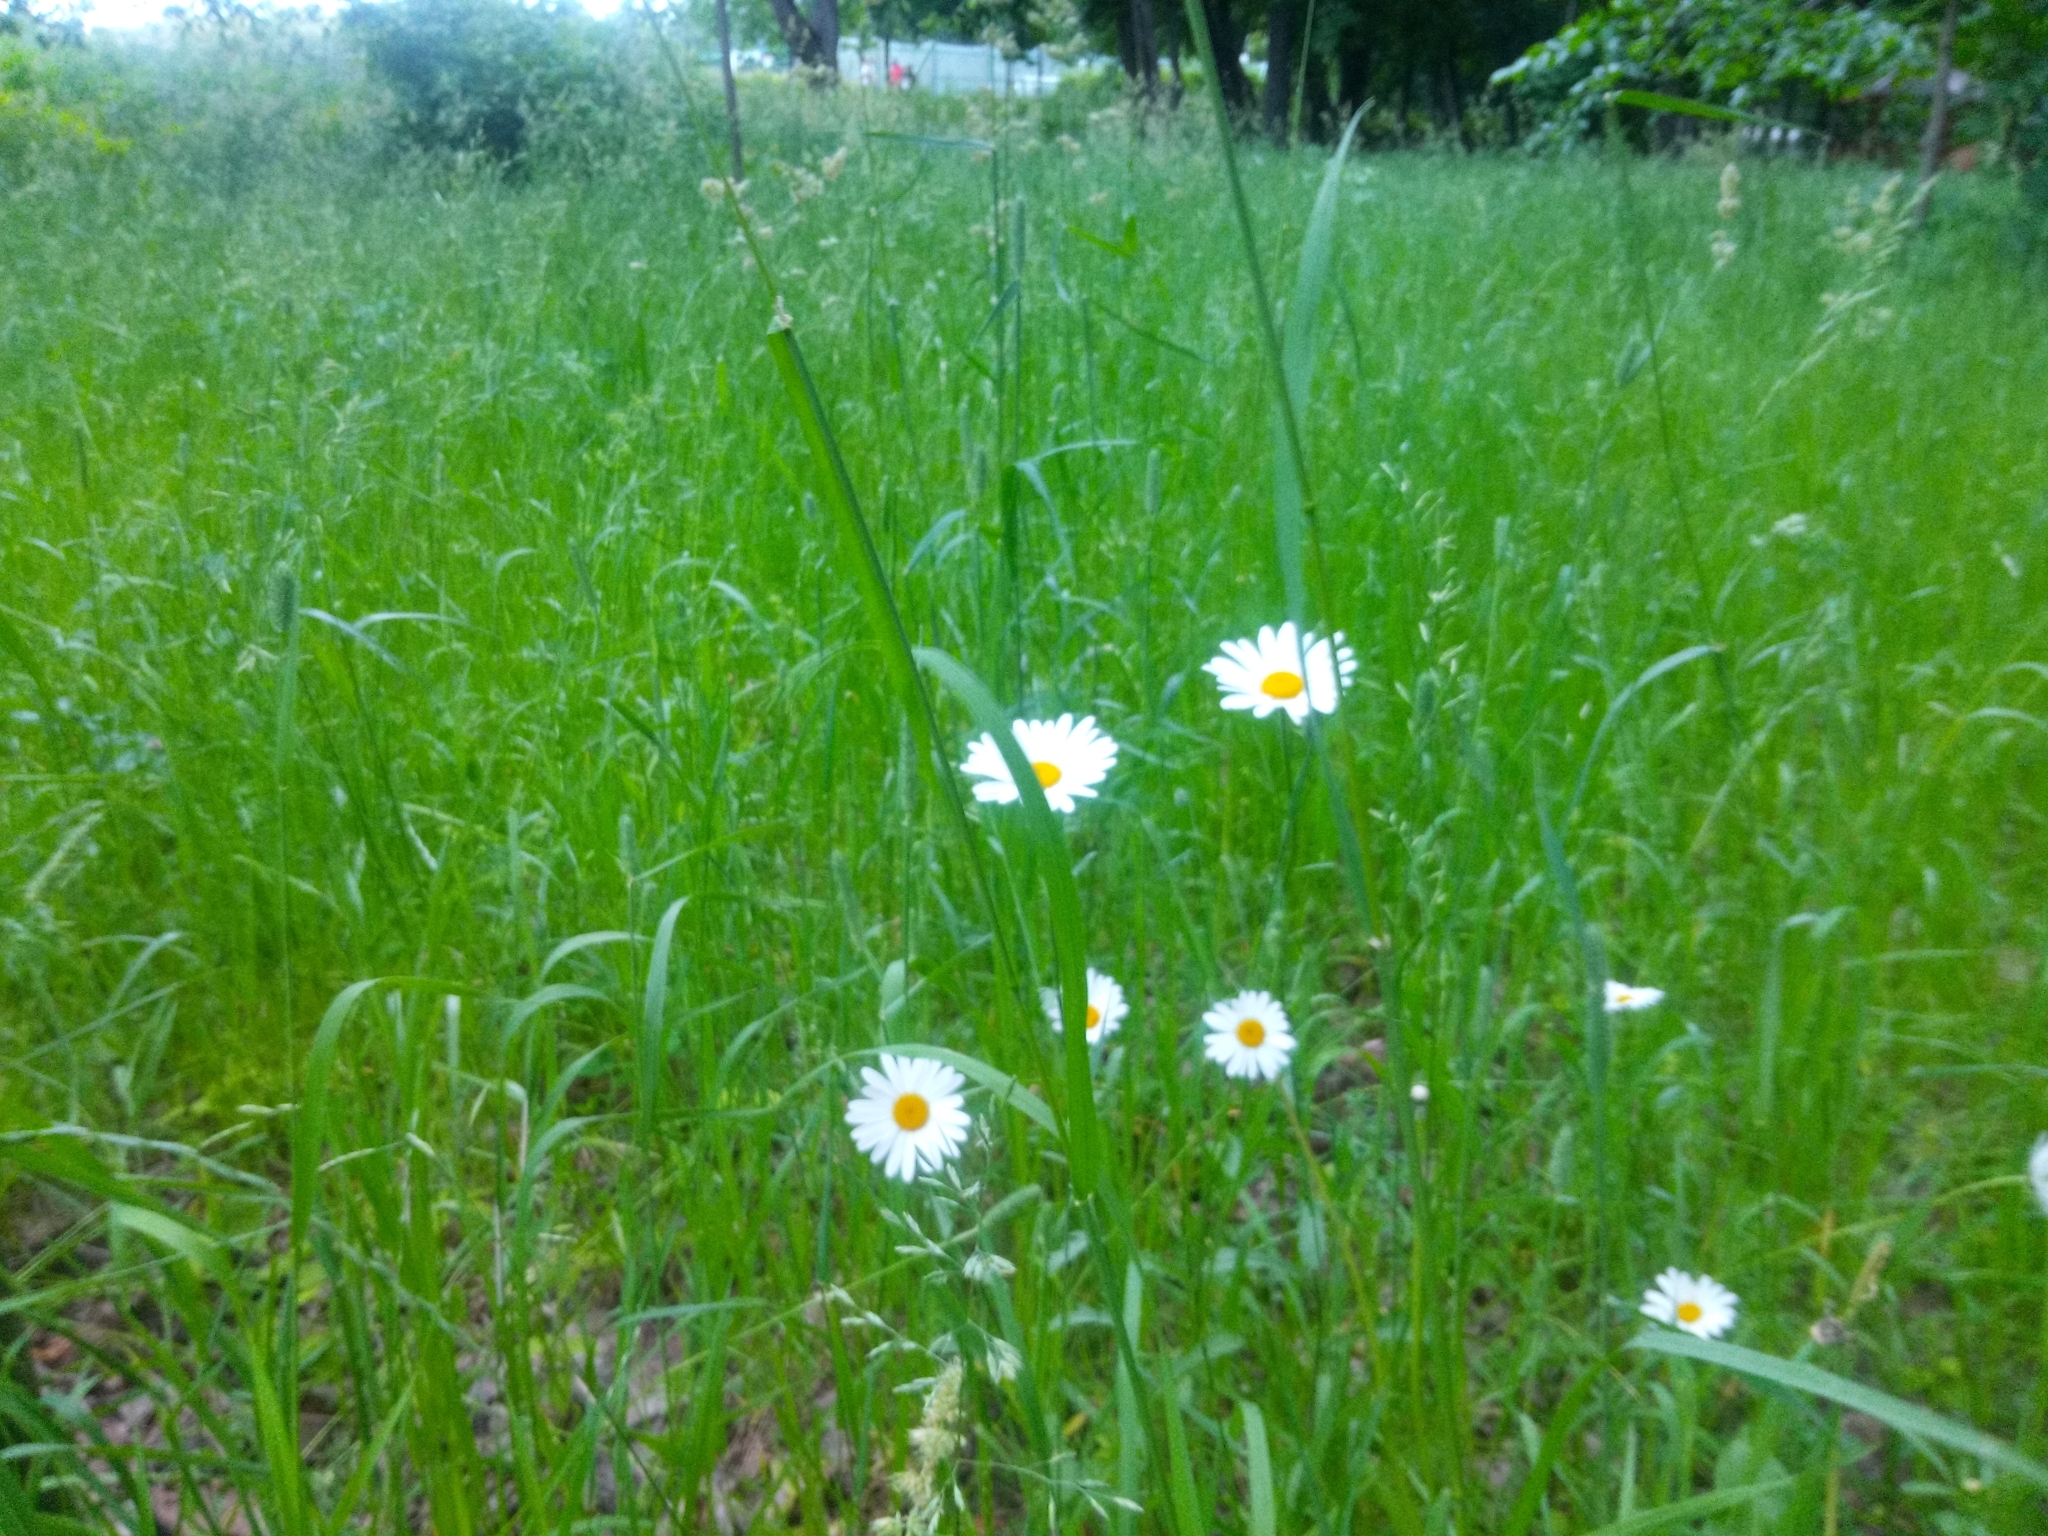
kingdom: Plantae
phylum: Tracheophyta
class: Magnoliopsida
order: Asterales
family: Asteraceae
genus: Leucanthemum
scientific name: Leucanthemum vulgare
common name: Oxeye daisy
